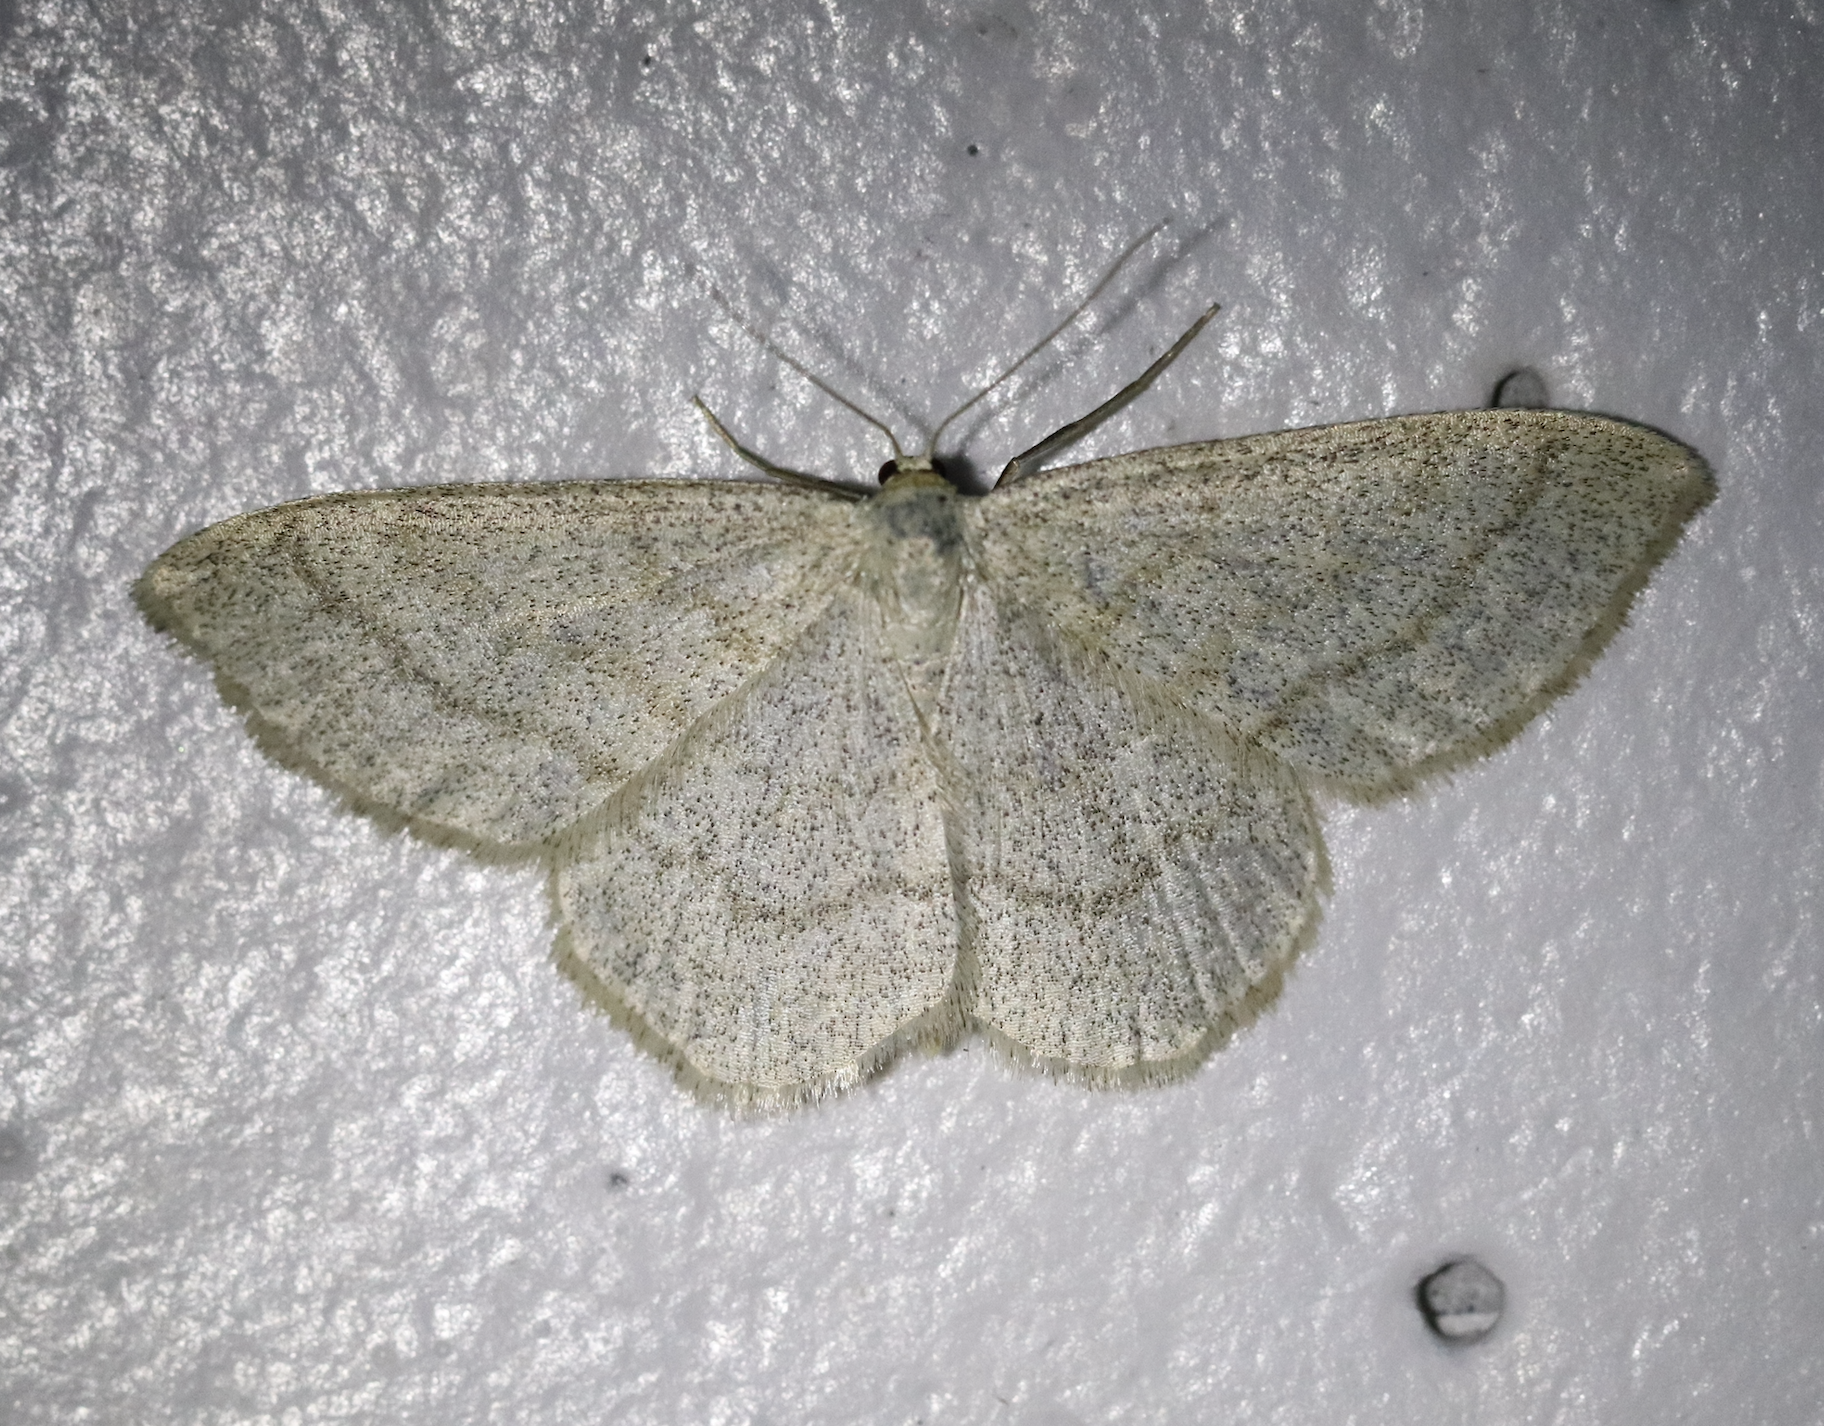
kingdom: Animalia
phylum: Arthropoda
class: Insecta
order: Lepidoptera
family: Geometridae
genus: Scopula
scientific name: Scopula ternata
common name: Smoky wave
